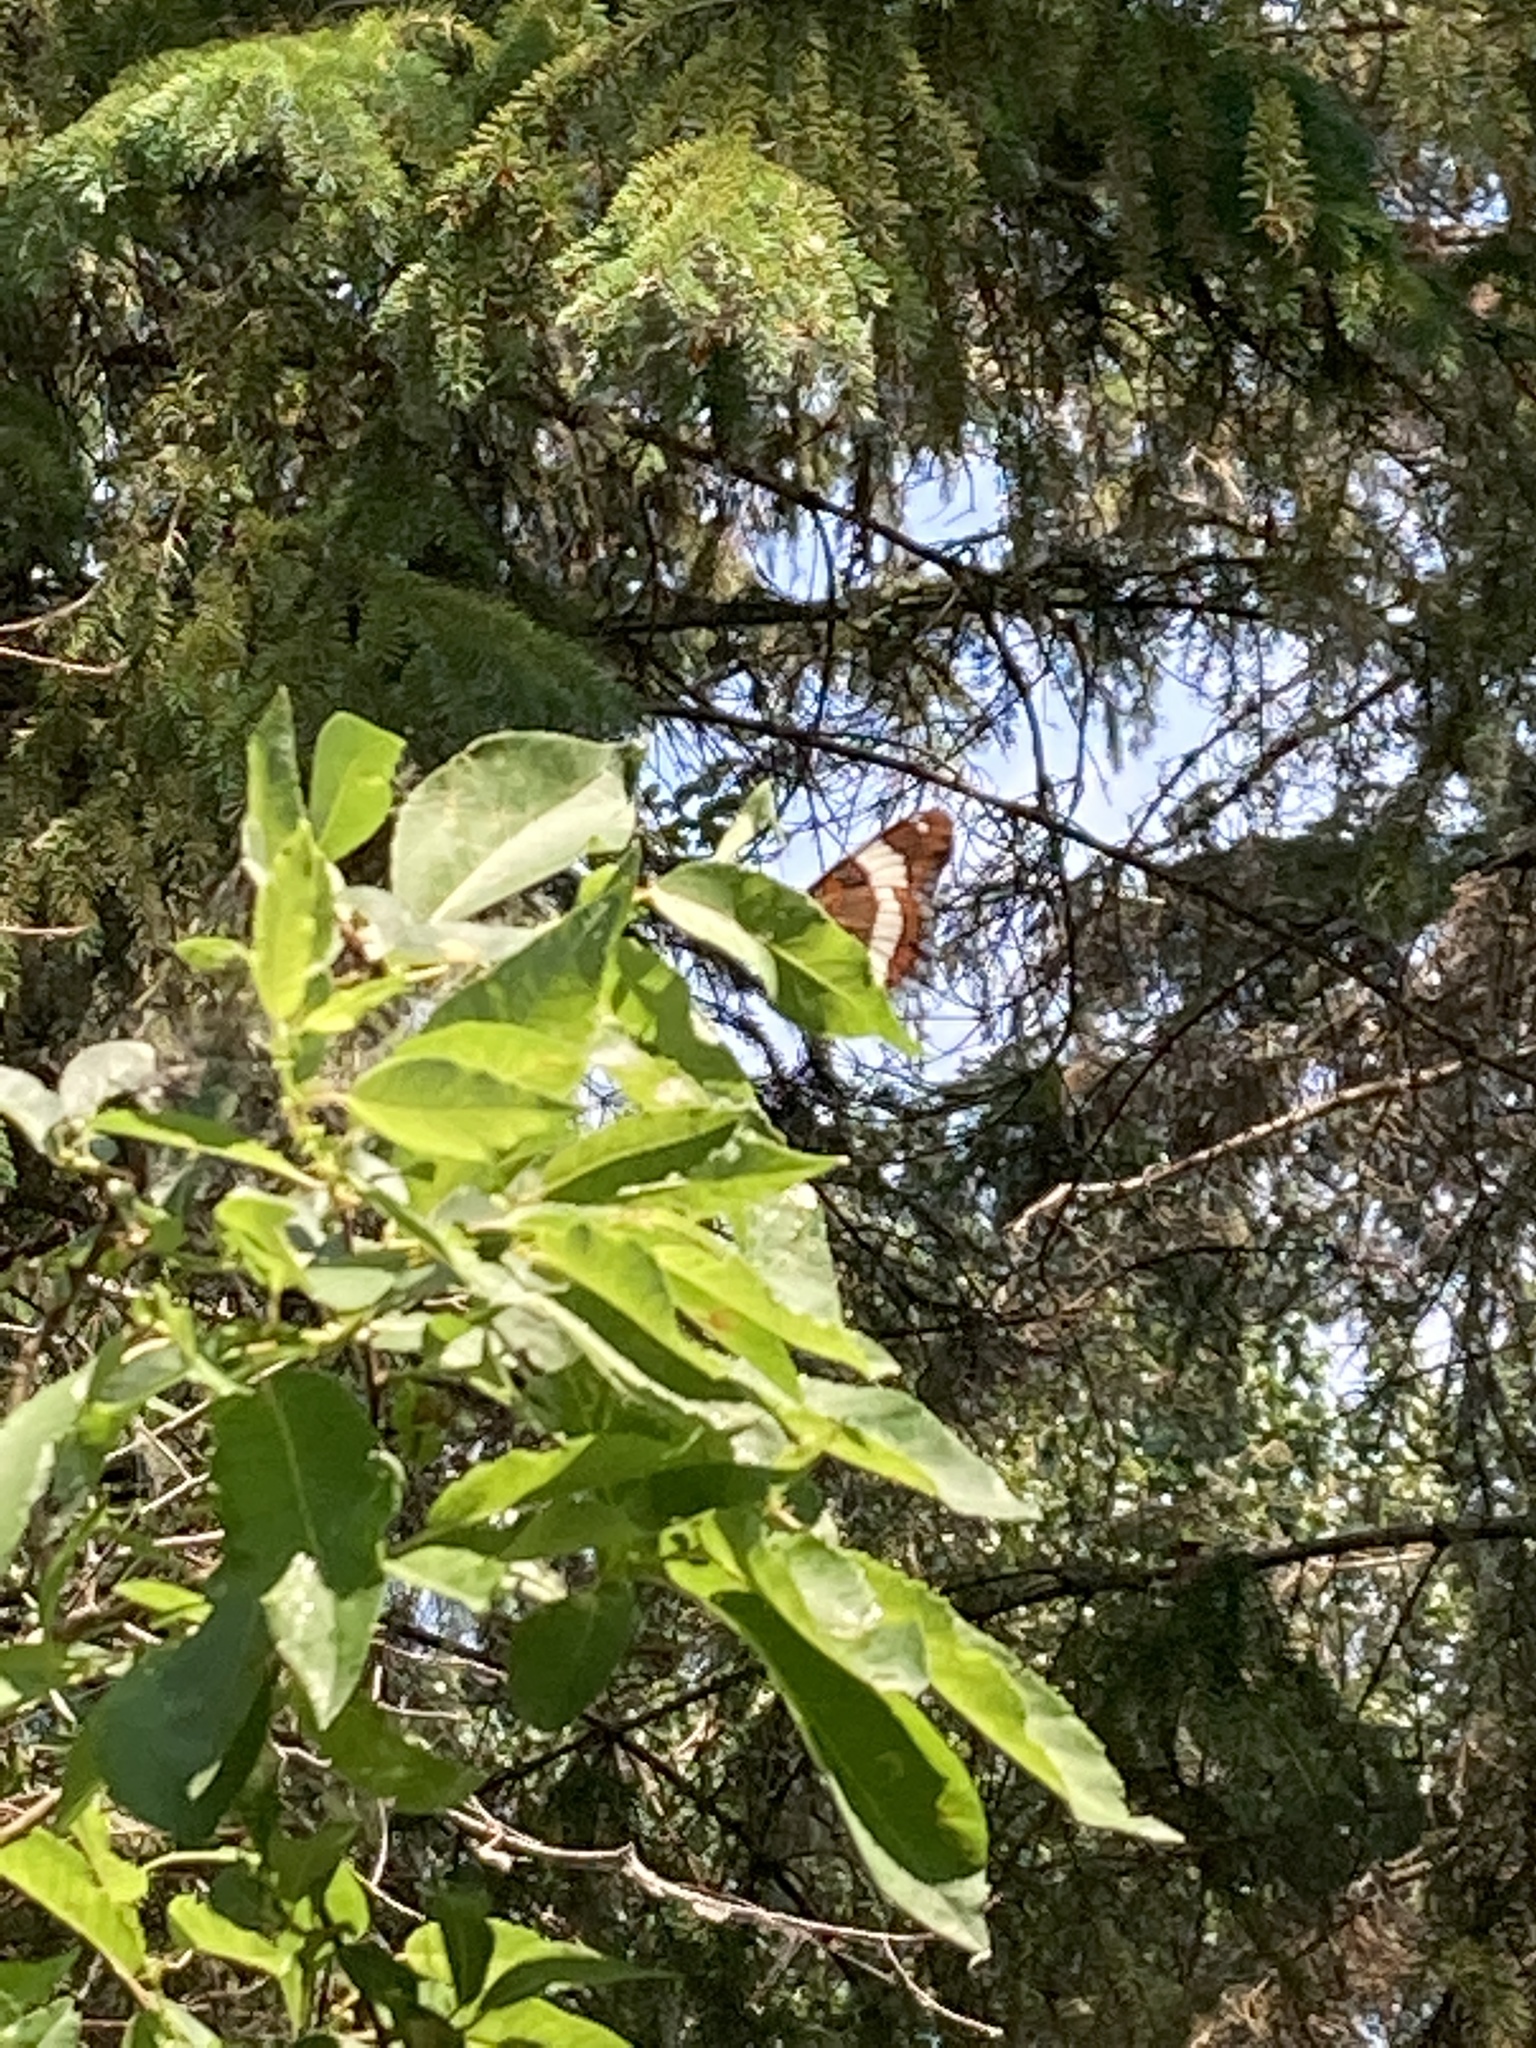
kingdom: Animalia
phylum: Arthropoda
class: Insecta
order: Lepidoptera
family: Nymphalidae
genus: Limenitis
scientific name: Limenitis arthemis
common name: Red-spotted admiral
